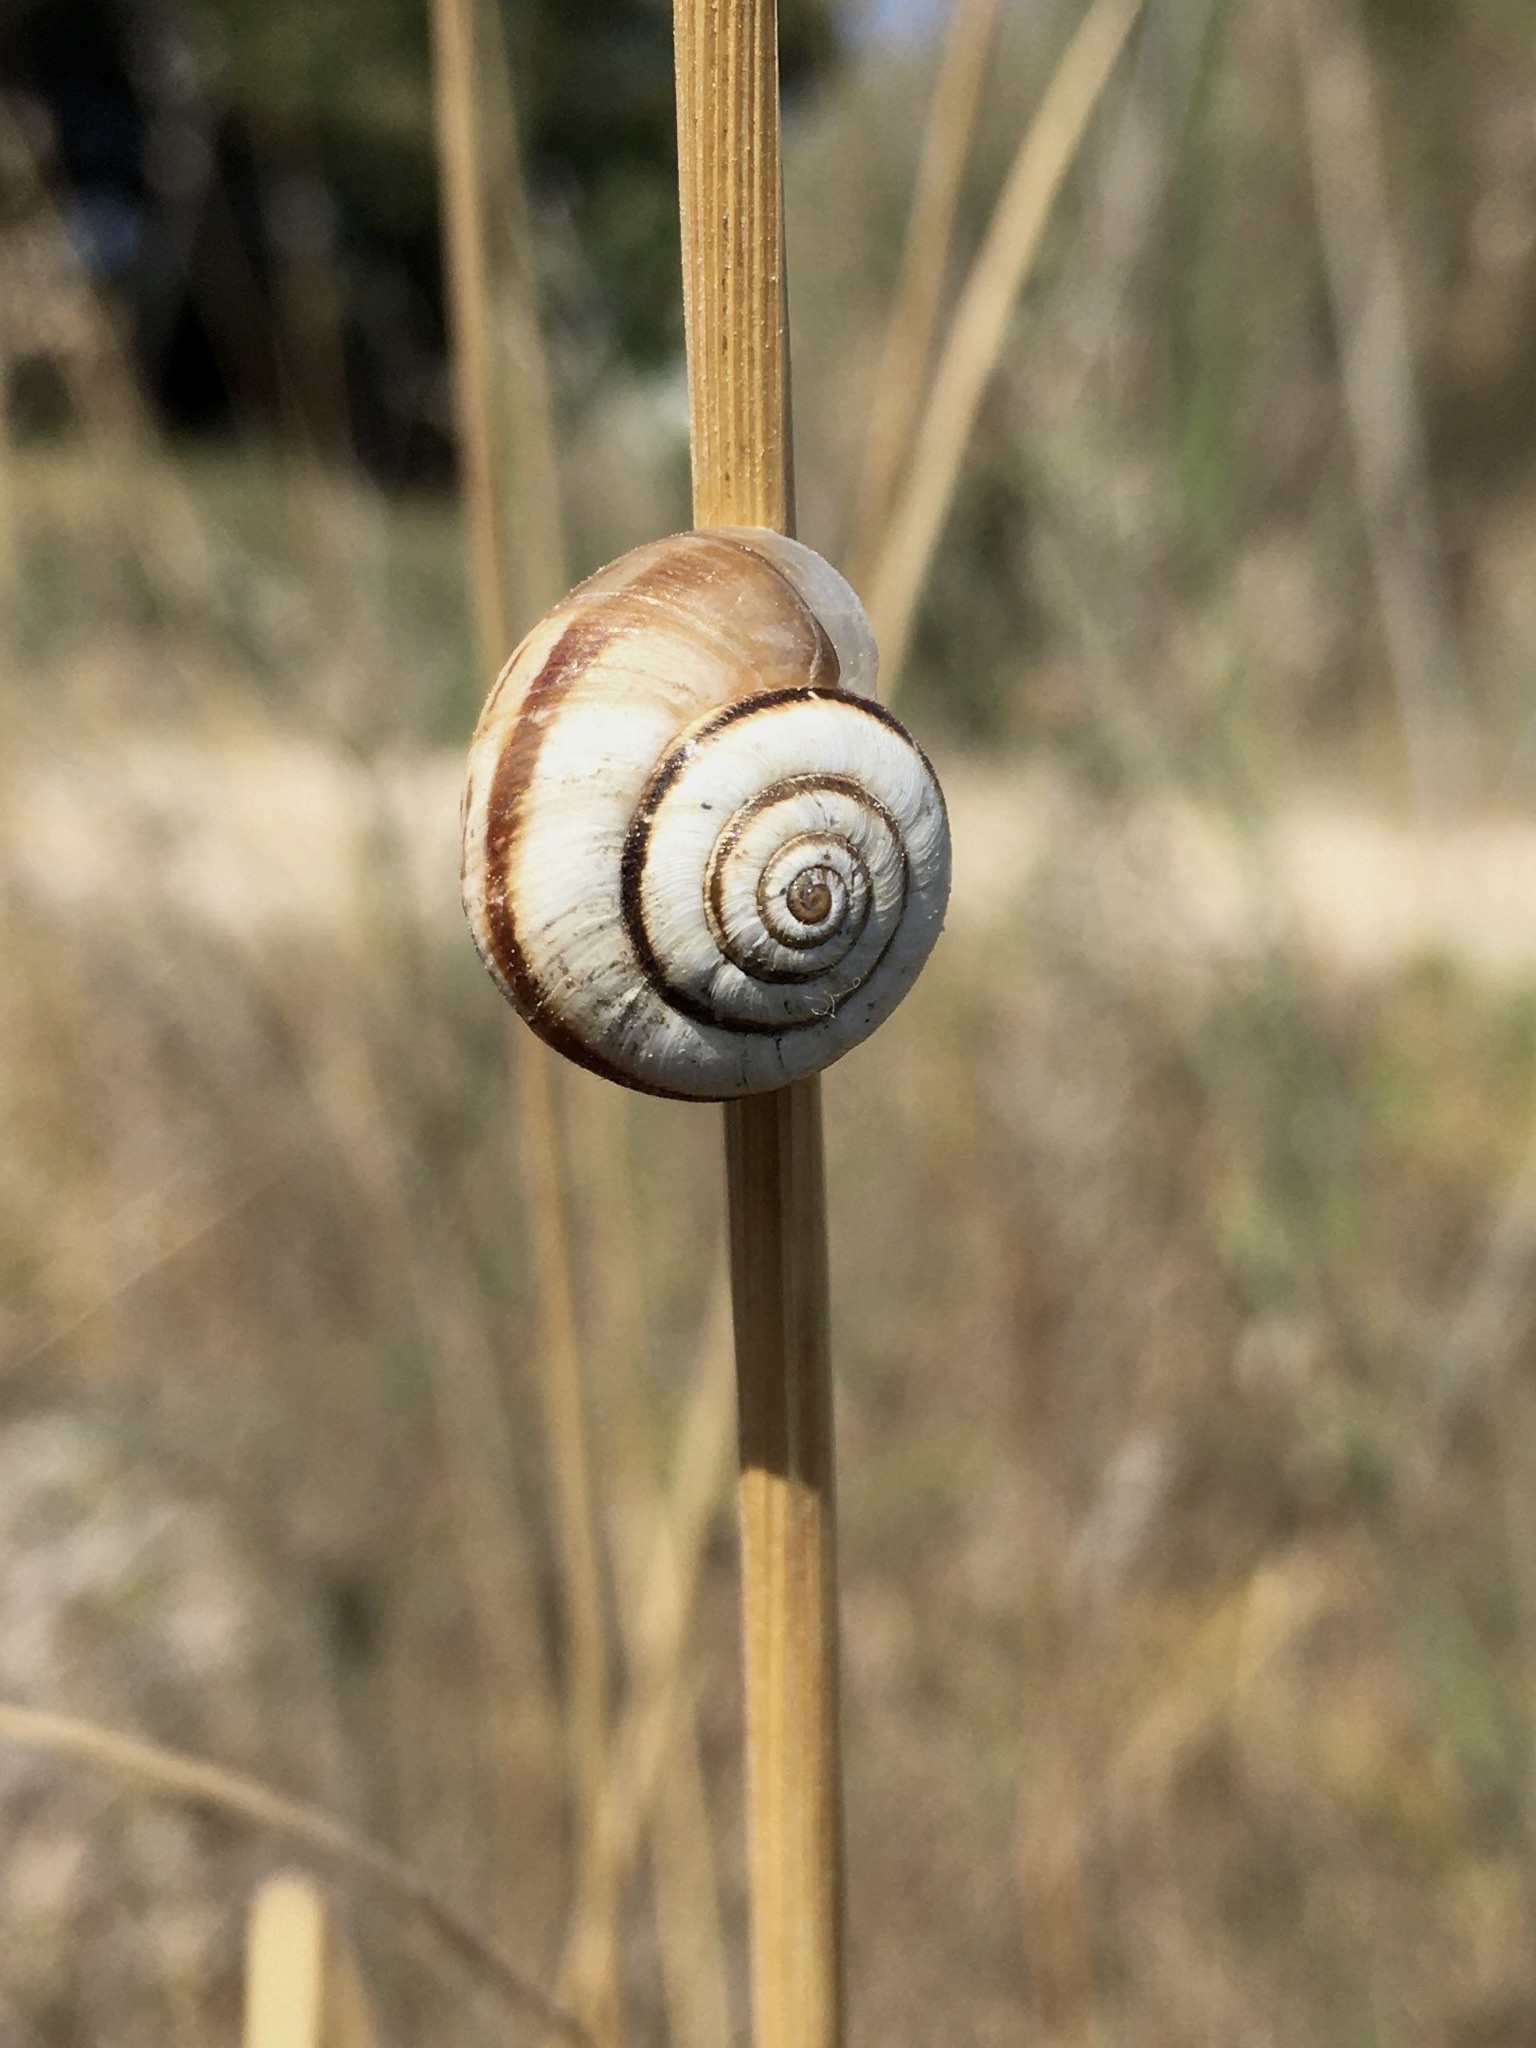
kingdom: Animalia
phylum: Mollusca
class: Gastropoda
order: Stylommatophora
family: Geomitridae
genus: Helicella
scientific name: Helicella itala
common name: Heath snail
